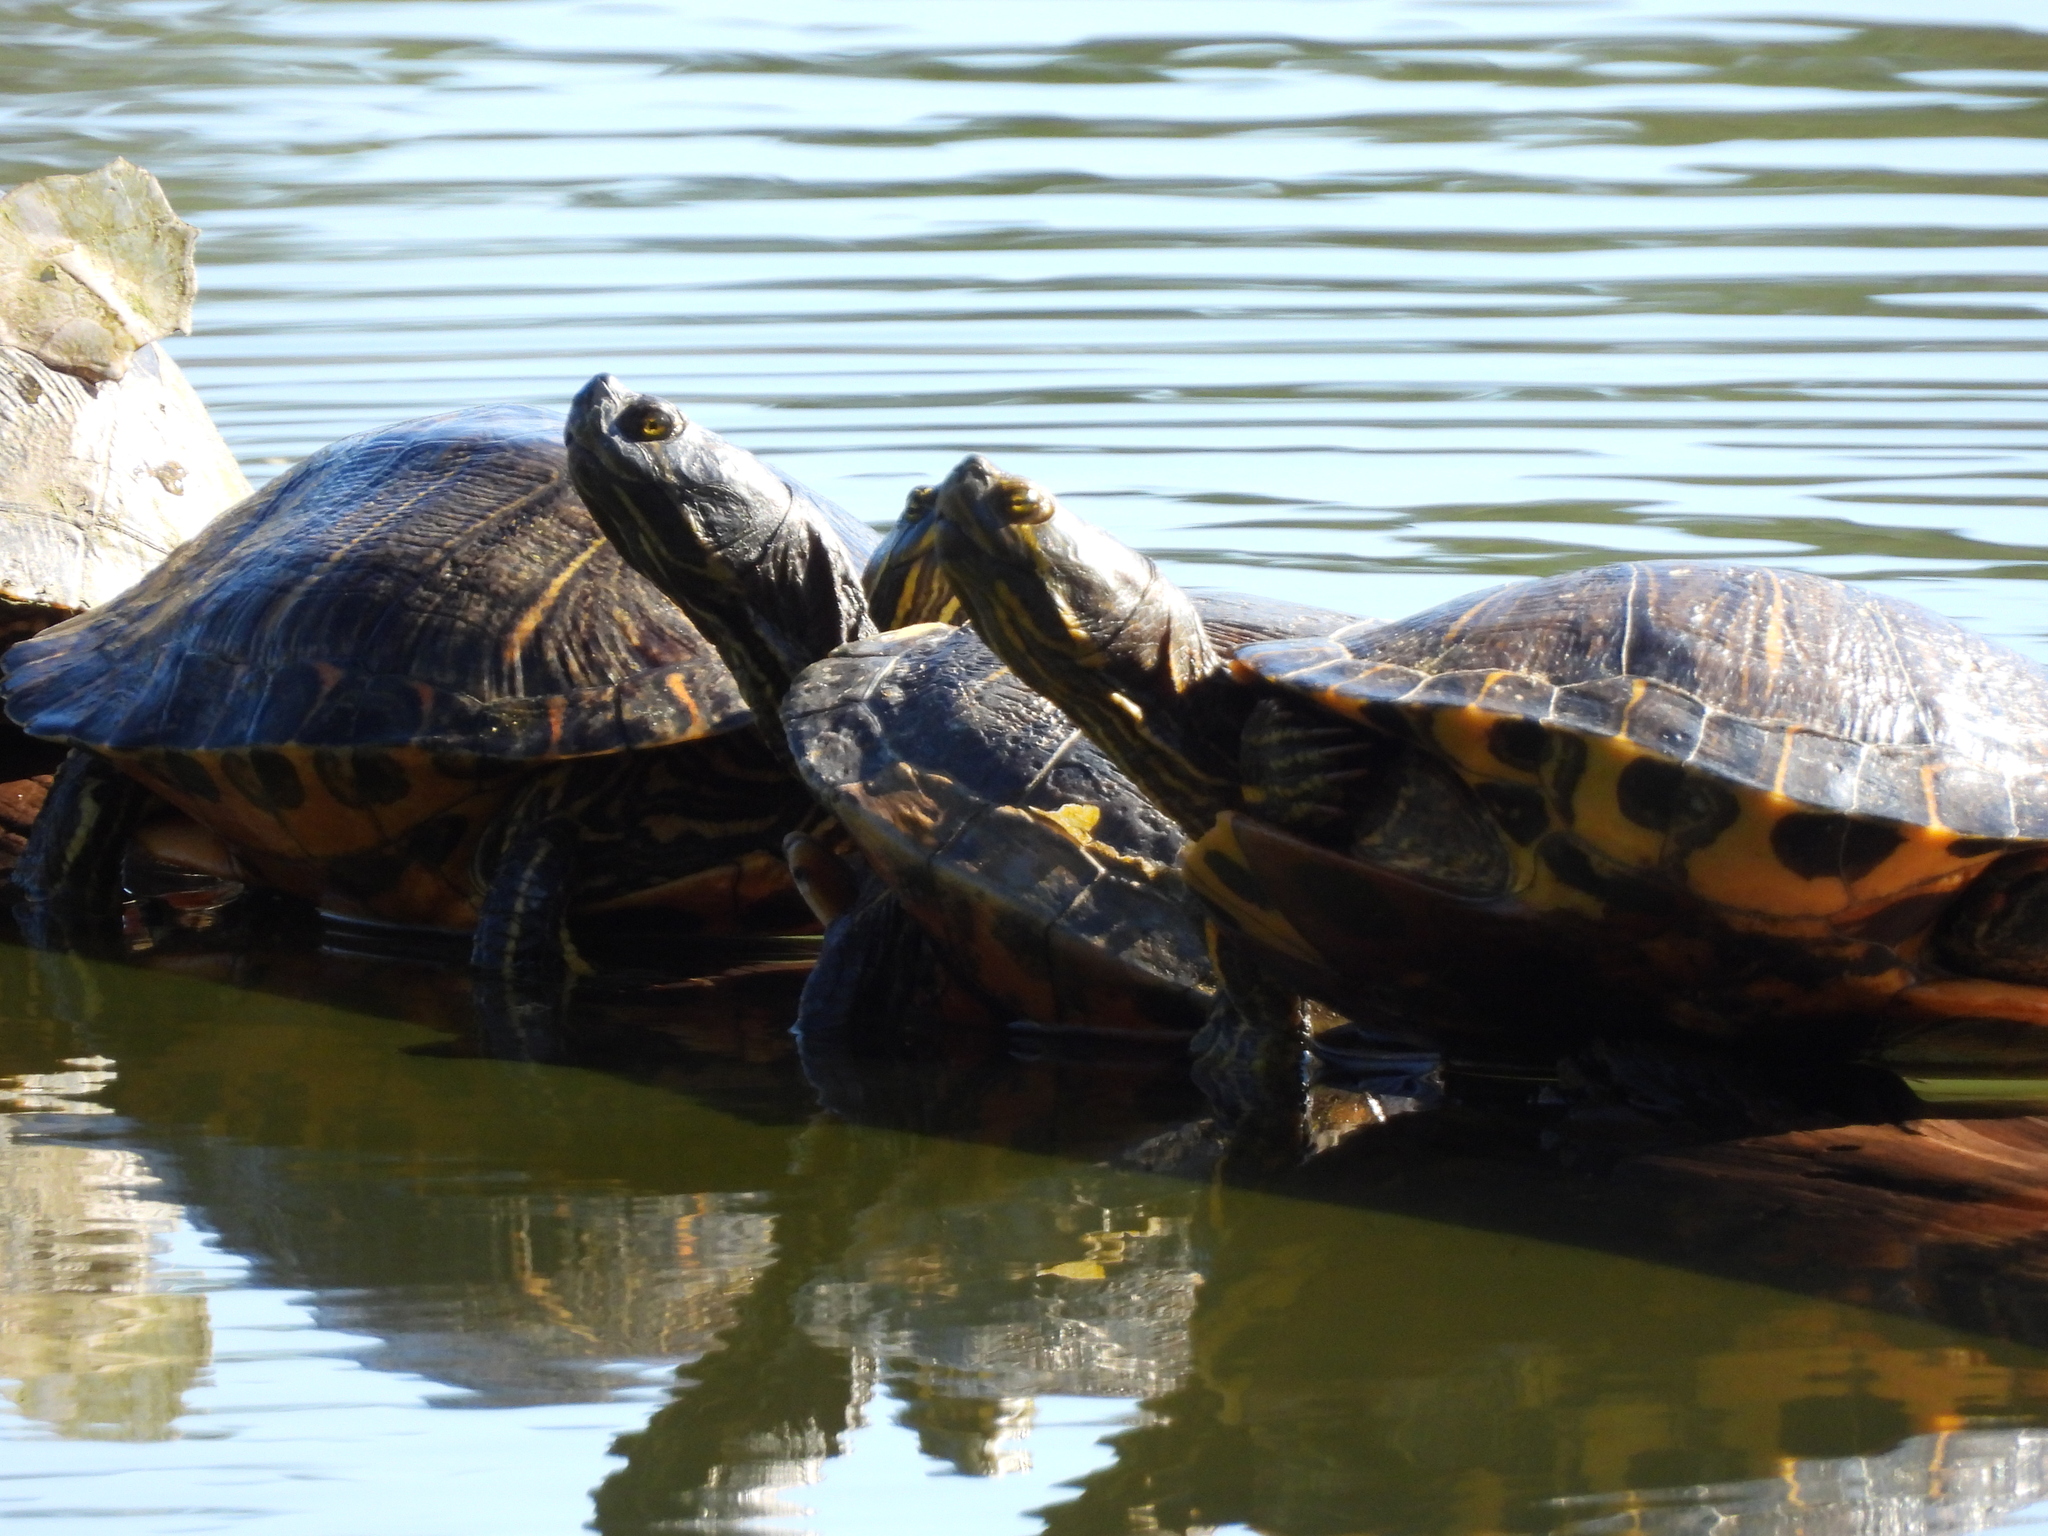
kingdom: Animalia
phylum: Chordata
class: Testudines
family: Emydidae
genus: Trachemys
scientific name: Trachemys scripta
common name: Slider
